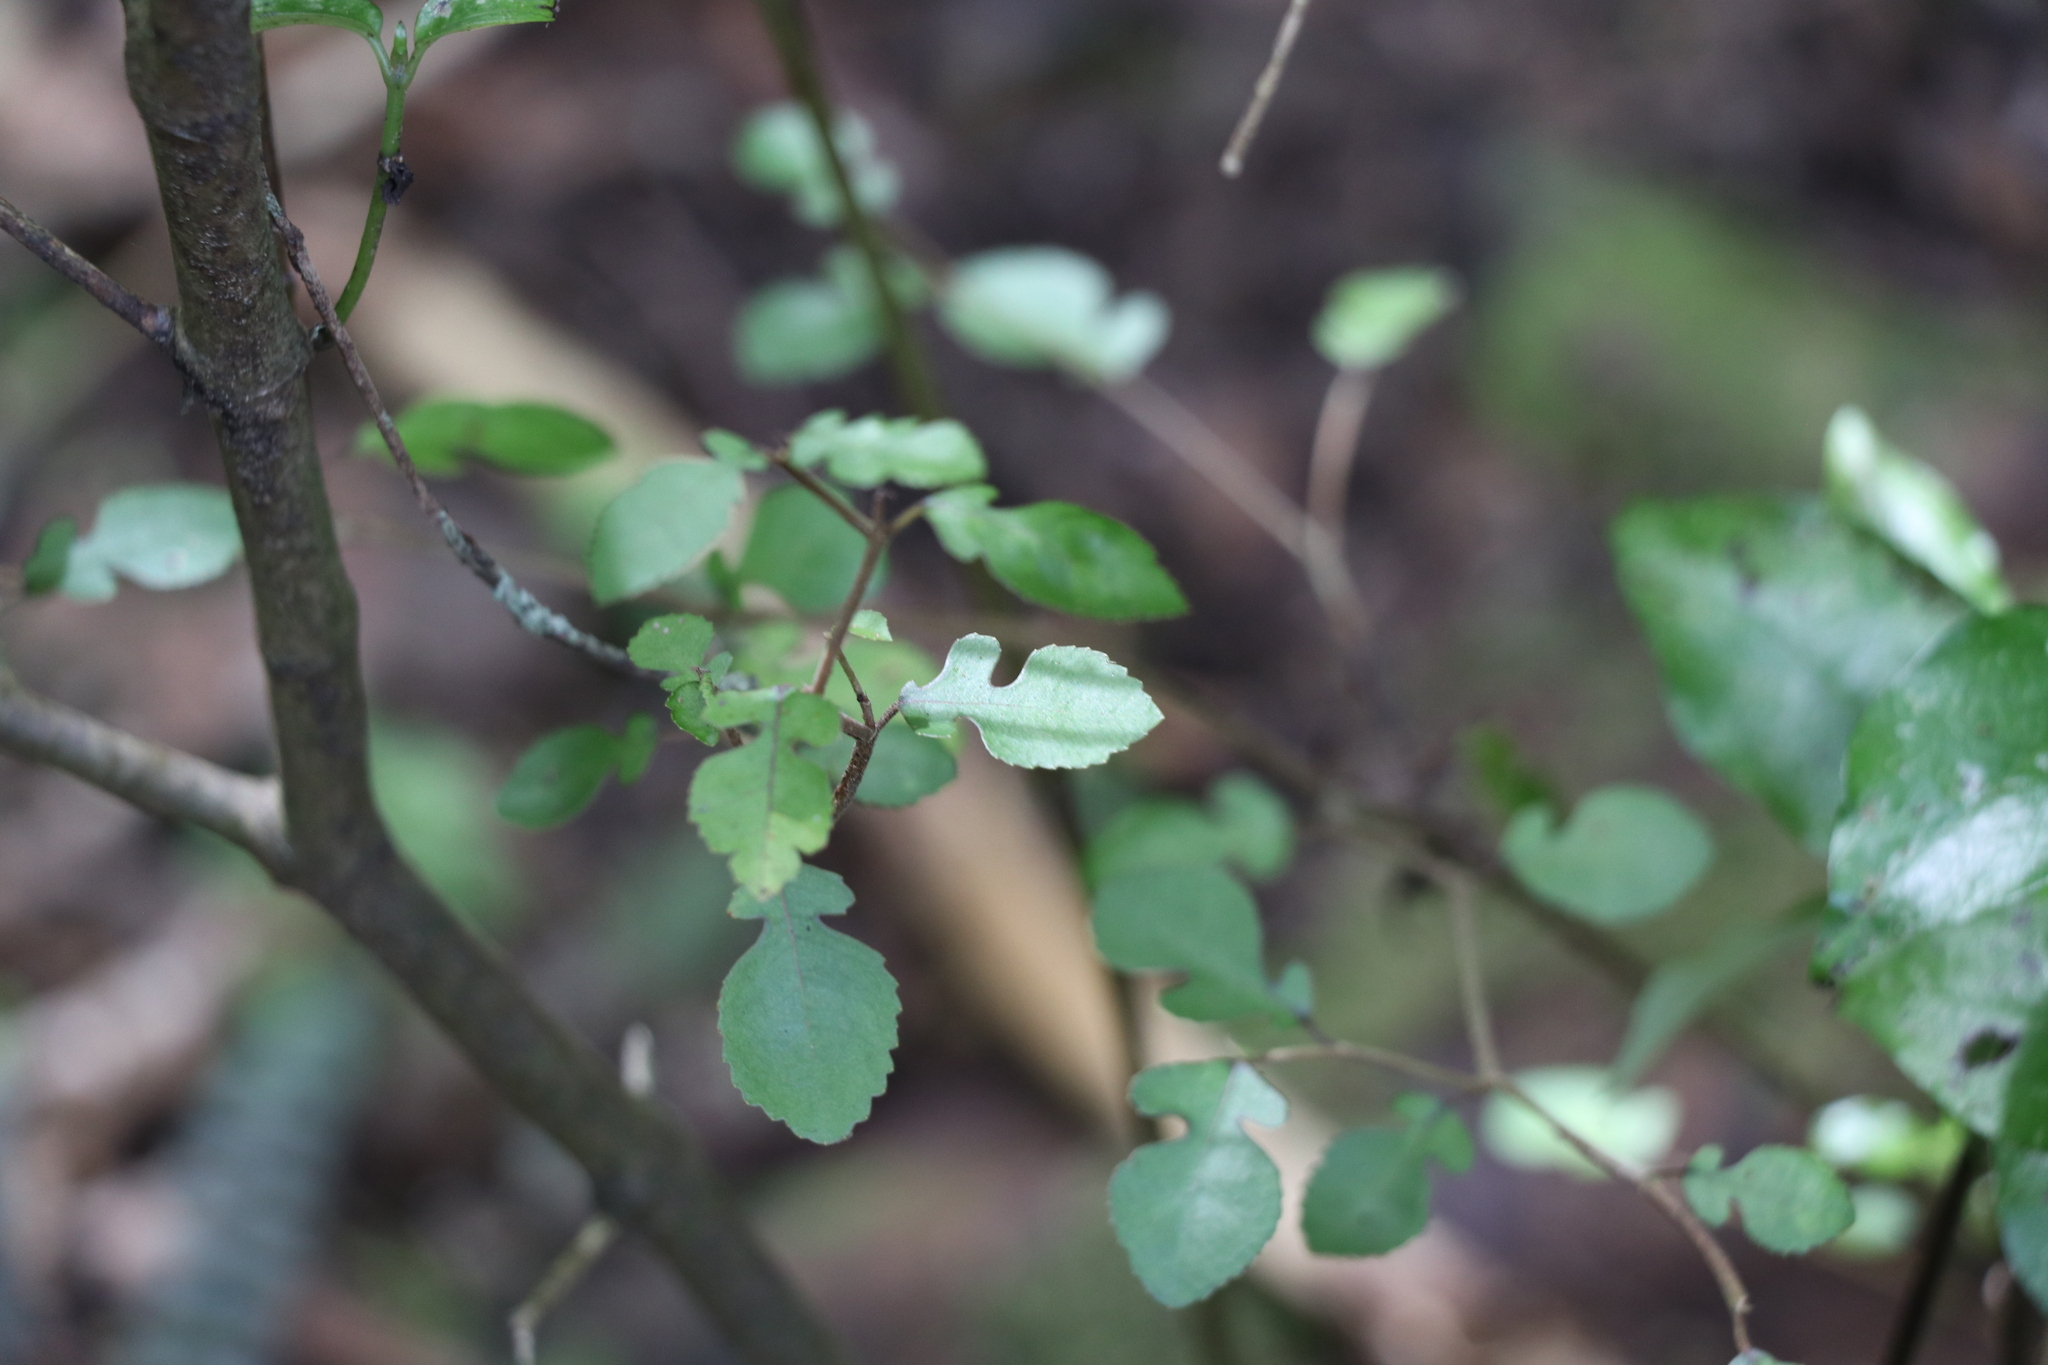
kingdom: Plantae
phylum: Tracheophyta
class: Magnoliopsida
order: Rosales
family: Moraceae
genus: Paratrophis
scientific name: Paratrophis microphylla
